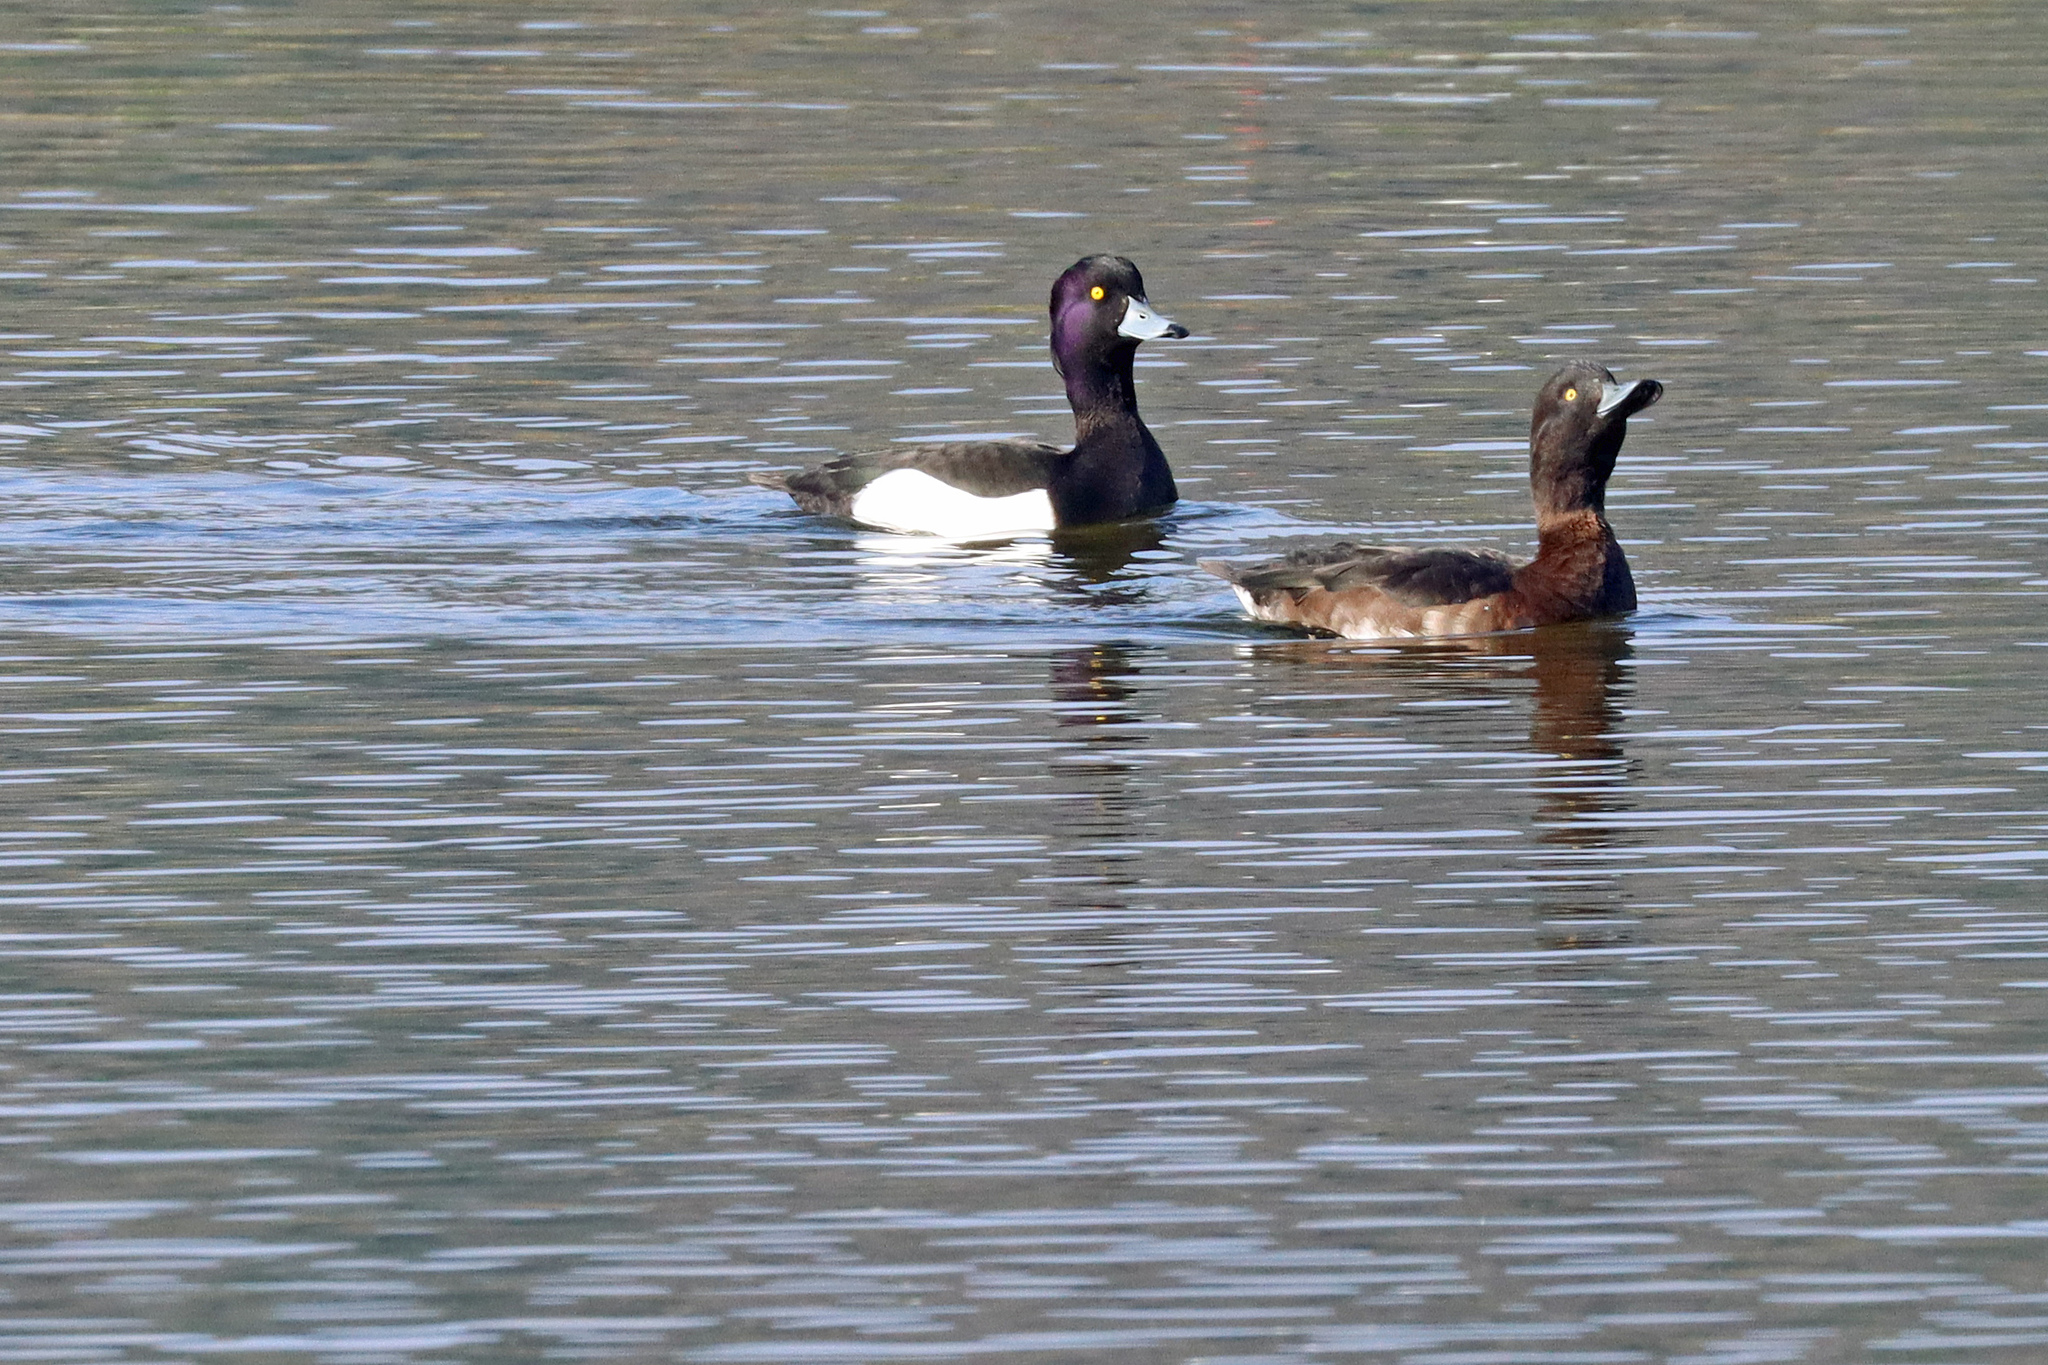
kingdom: Animalia
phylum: Chordata
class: Aves
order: Anseriformes
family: Anatidae
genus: Aythya
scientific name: Aythya fuligula
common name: Tufted duck
